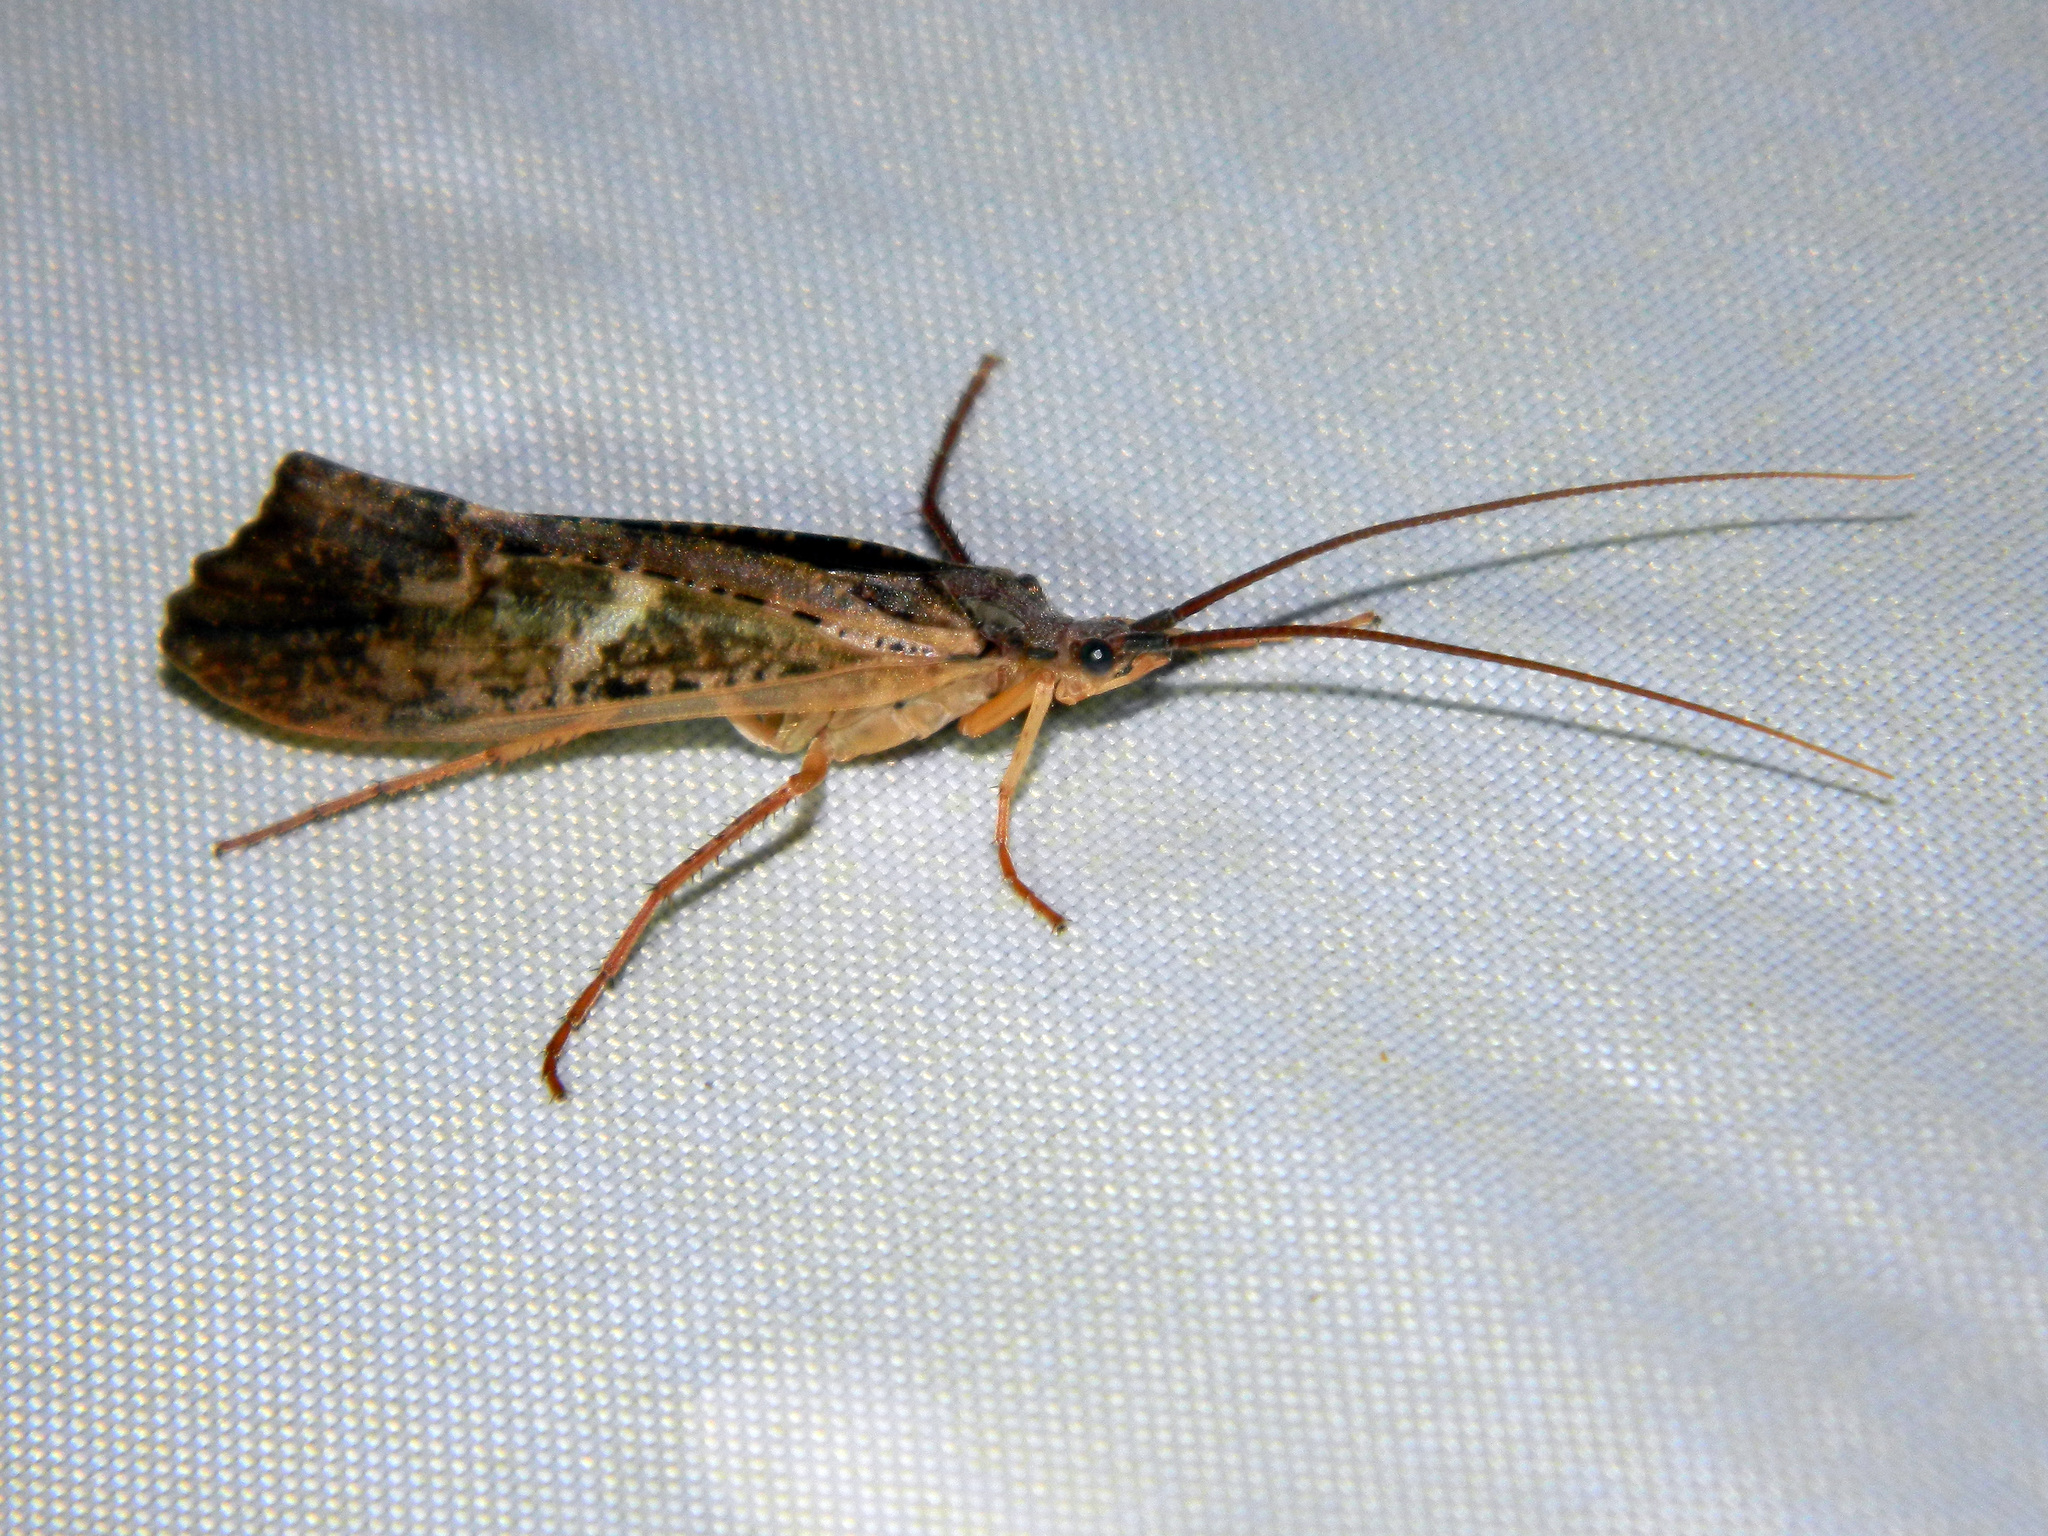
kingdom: Animalia
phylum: Arthropoda
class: Insecta
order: Trichoptera
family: Limnephilidae
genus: Nemotaulius
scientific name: Nemotaulius hostilis
